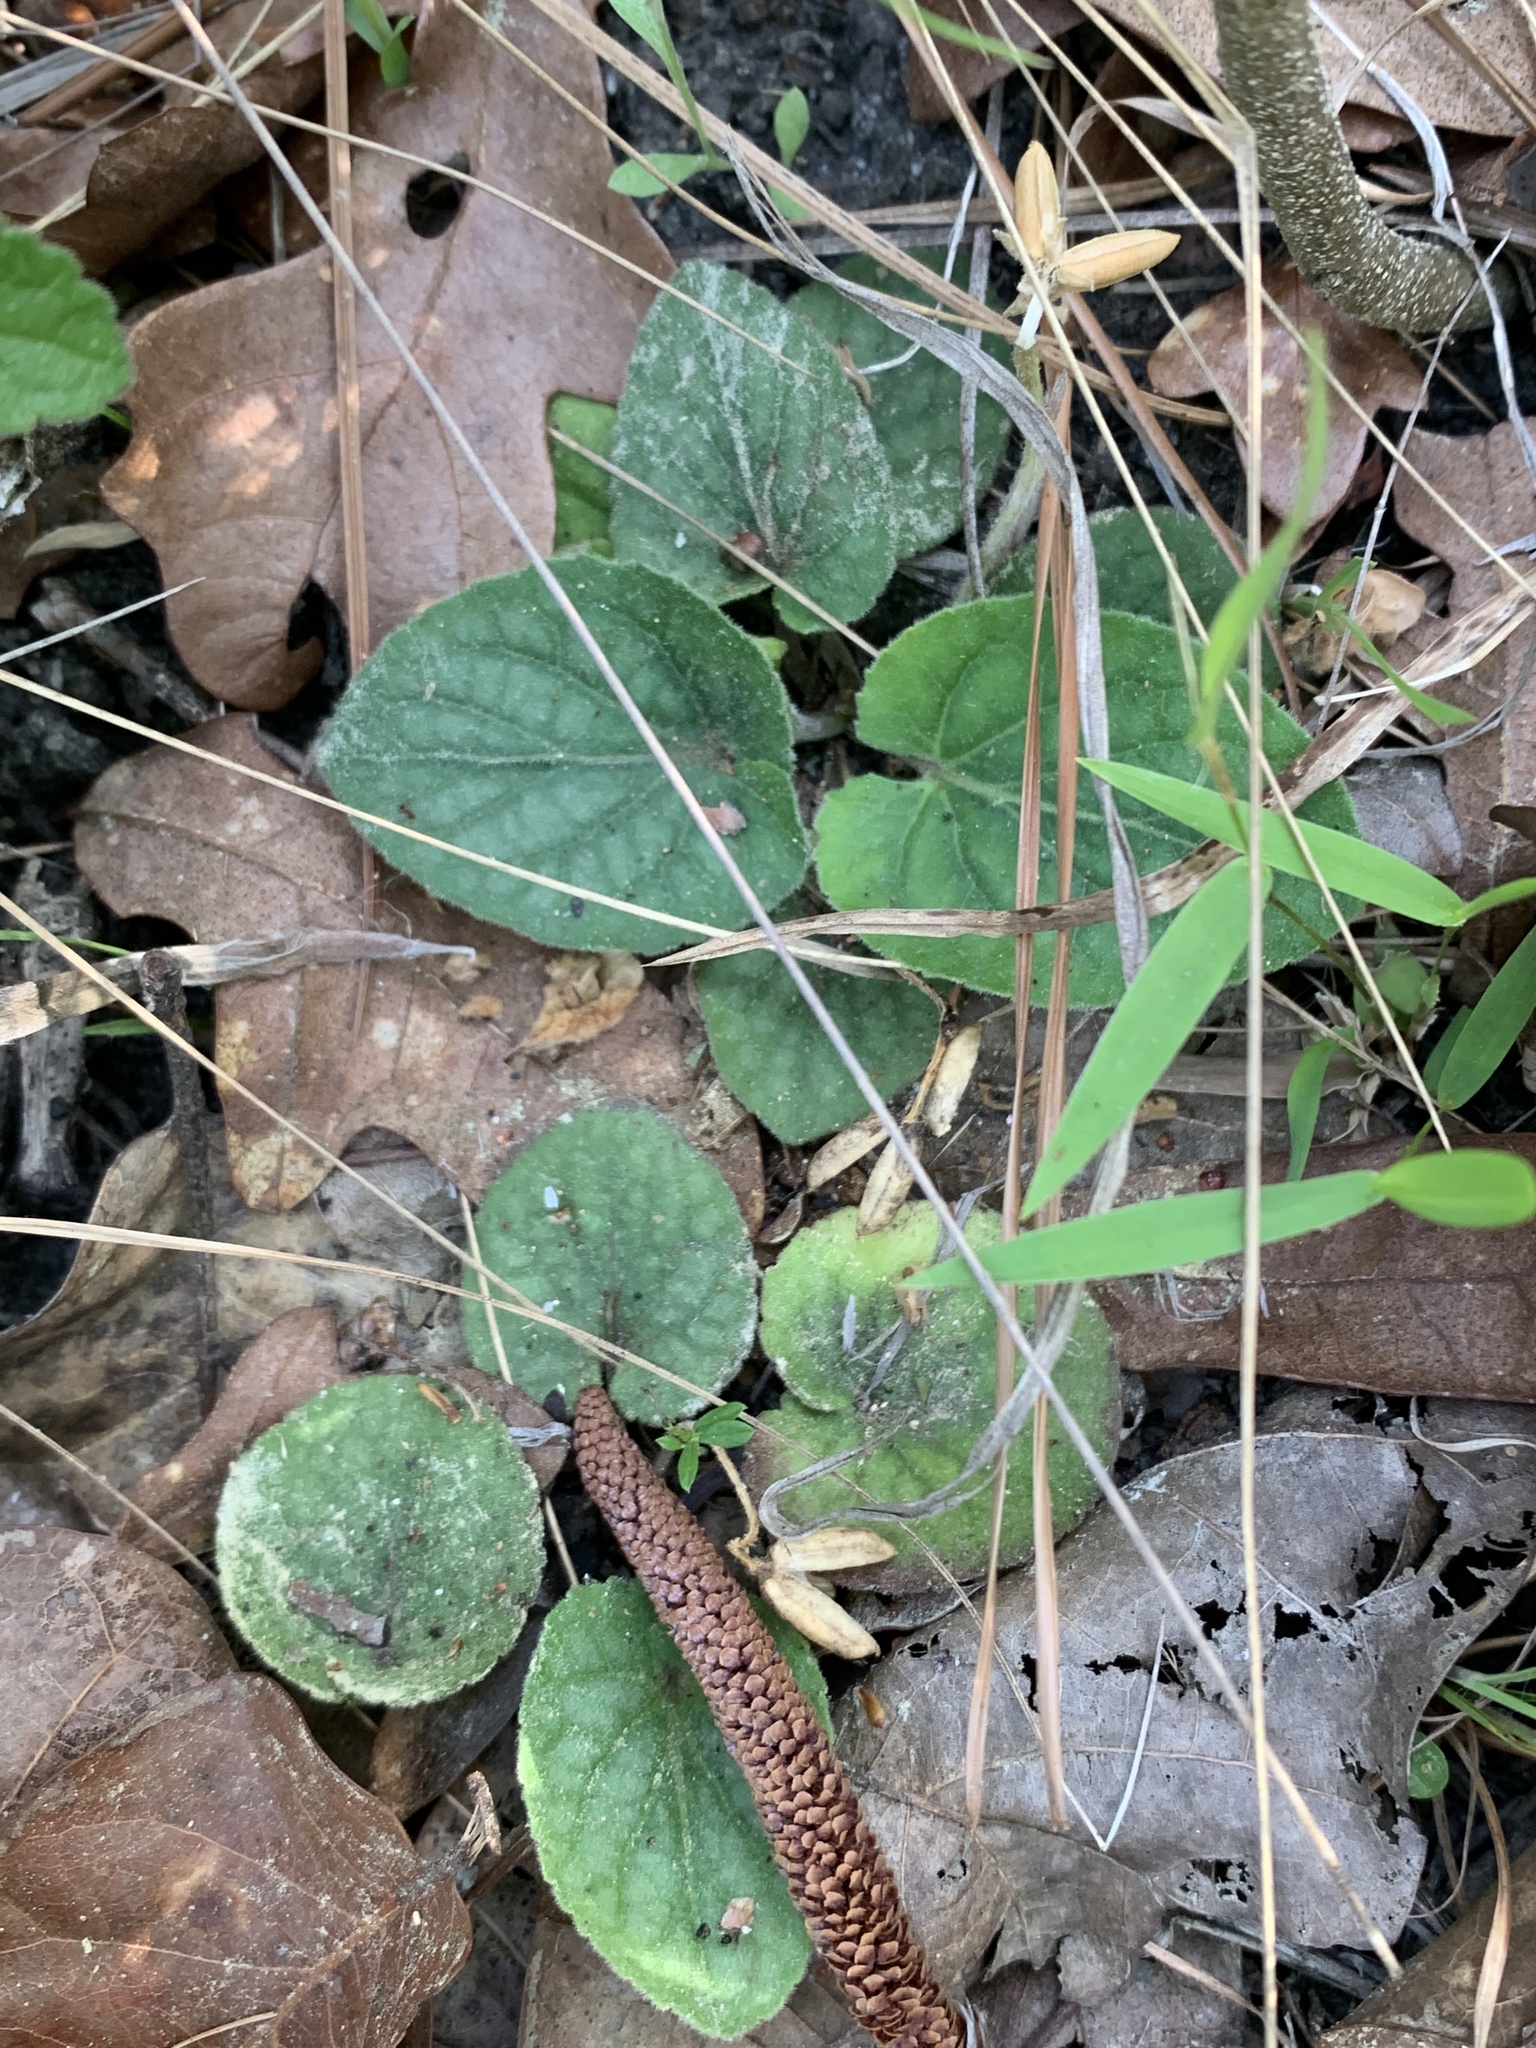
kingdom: Plantae
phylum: Tracheophyta
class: Magnoliopsida
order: Malpighiales
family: Violaceae
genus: Viola
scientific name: Viola villosa
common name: Carolina violet
